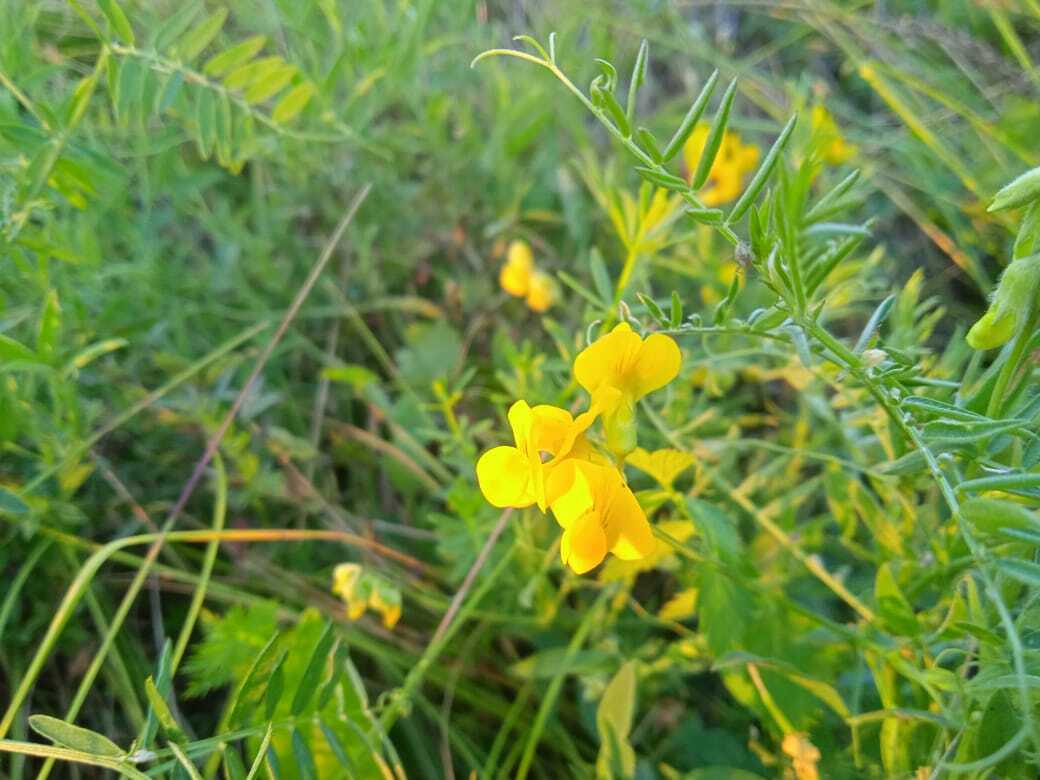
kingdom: Plantae
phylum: Tracheophyta
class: Magnoliopsida
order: Fabales
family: Fabaceae
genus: Lathyrus
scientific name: Lathyrus pratensis
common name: Meadow vetchling
